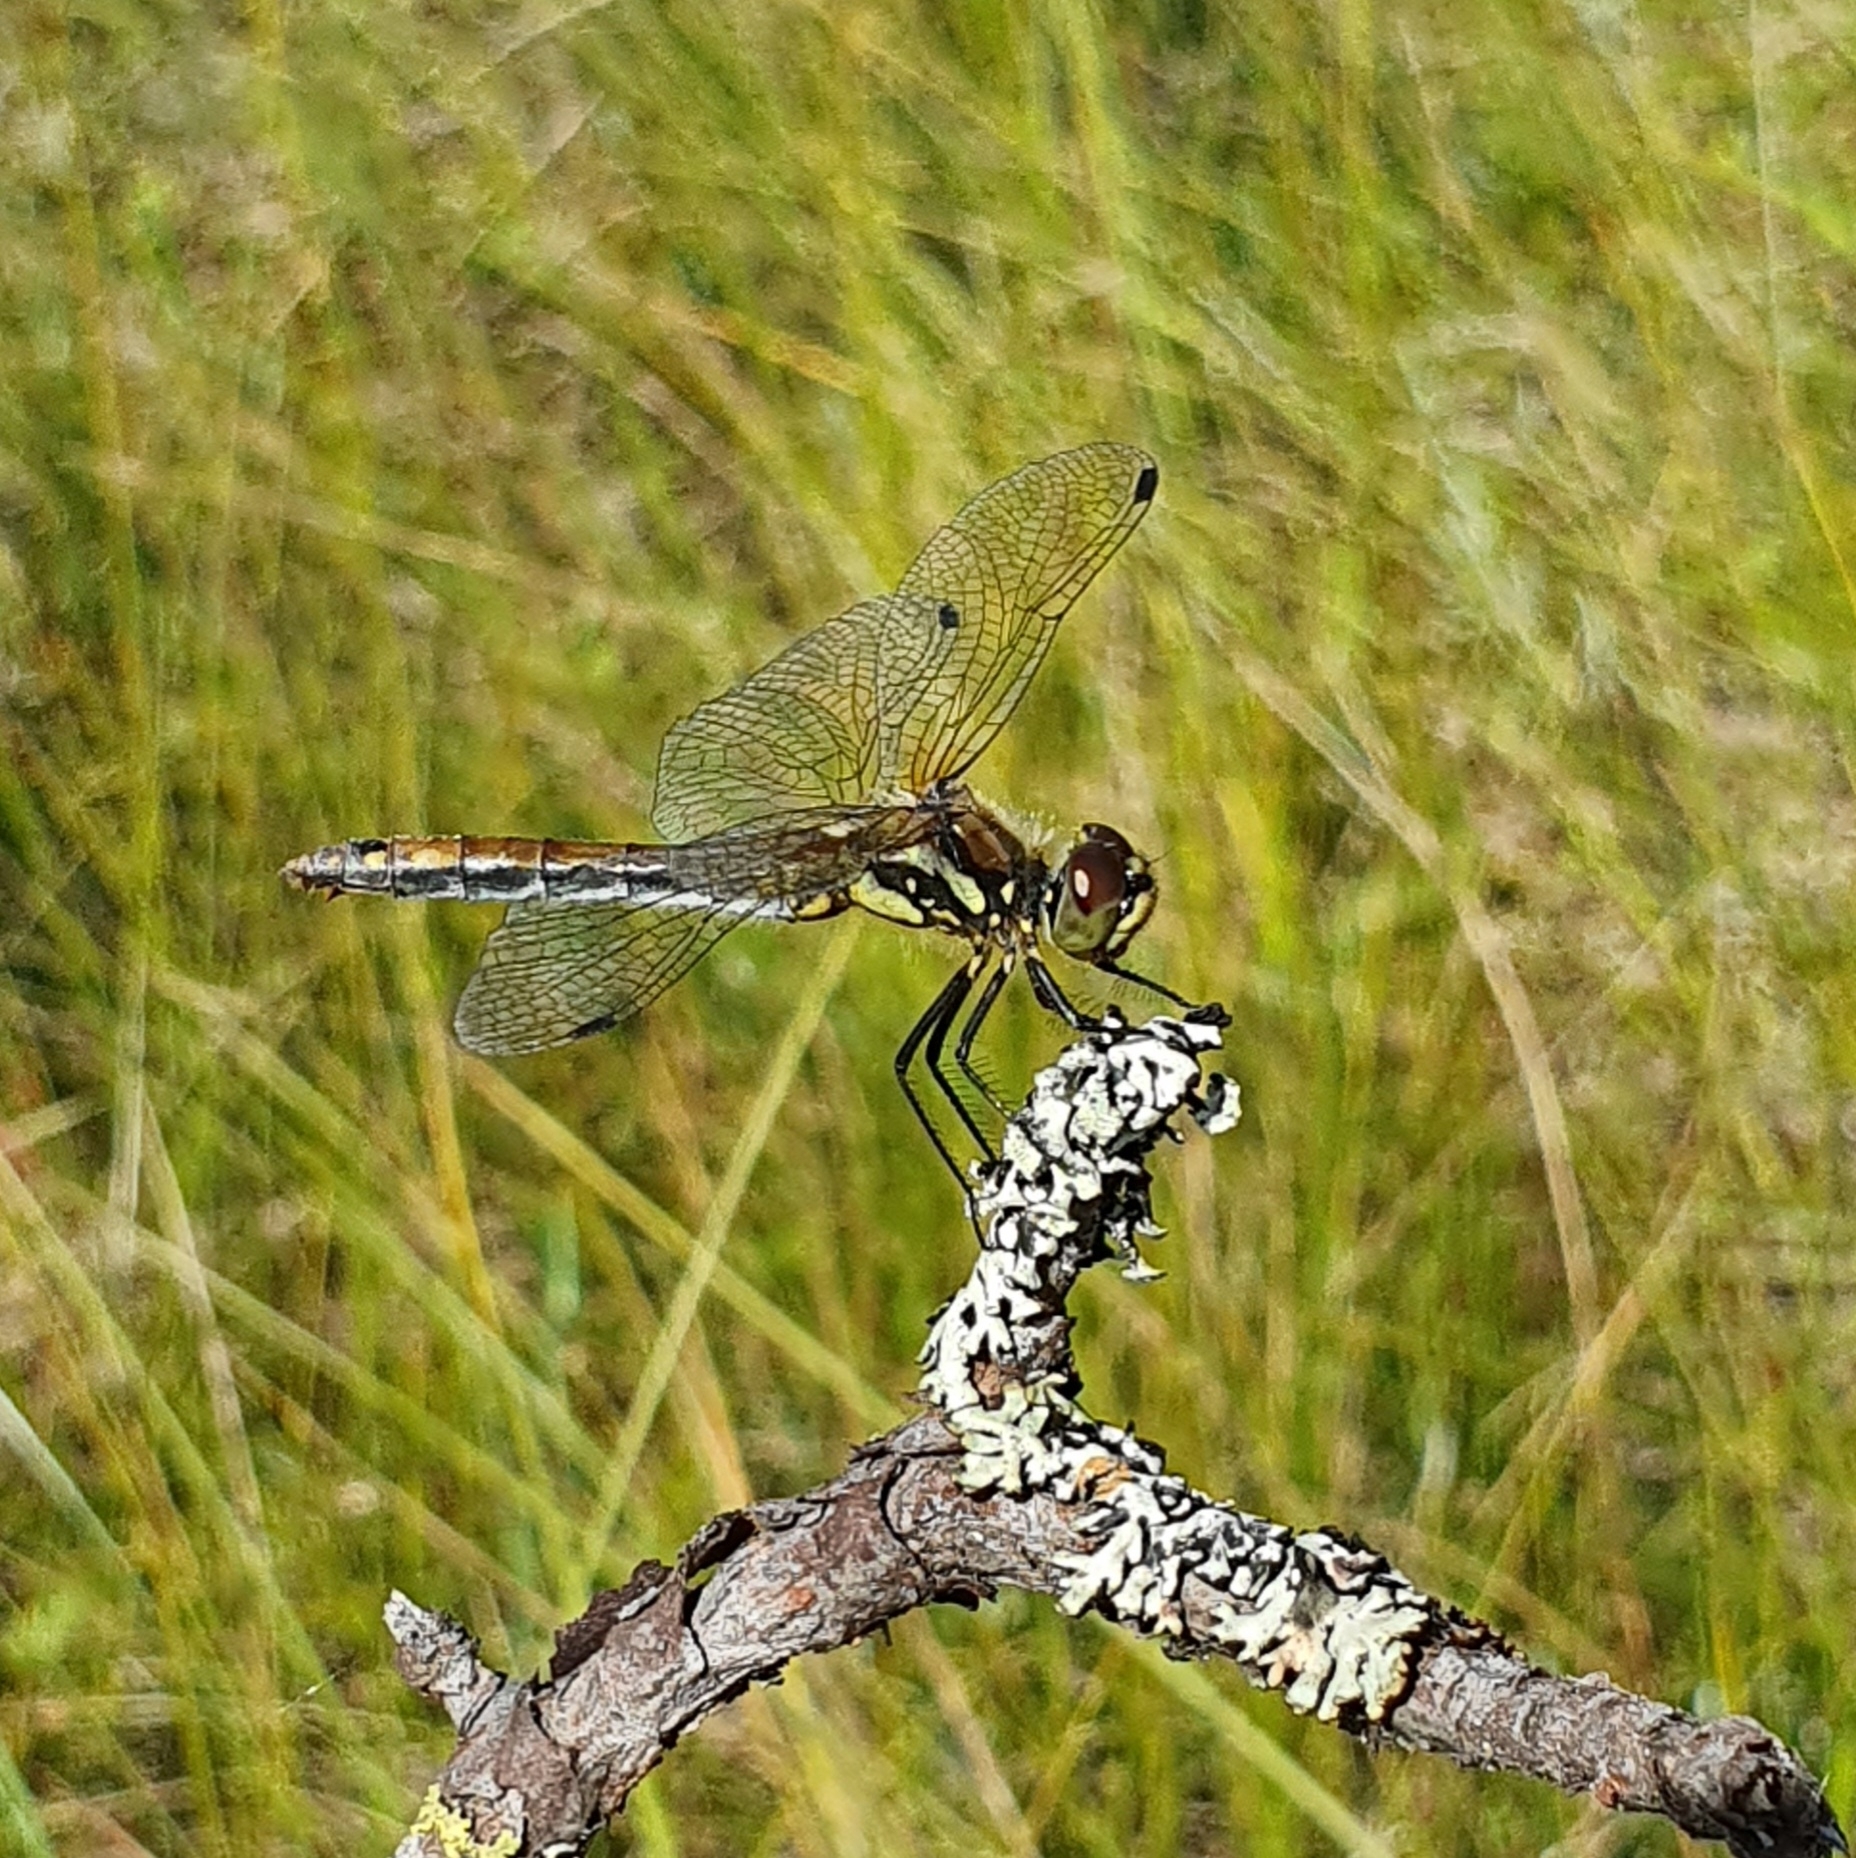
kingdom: Animalia
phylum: Arthropoda
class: Insecta
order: Odonata
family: Libellulidae
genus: Sympetrum
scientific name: Sympetrum danae
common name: Black darter
